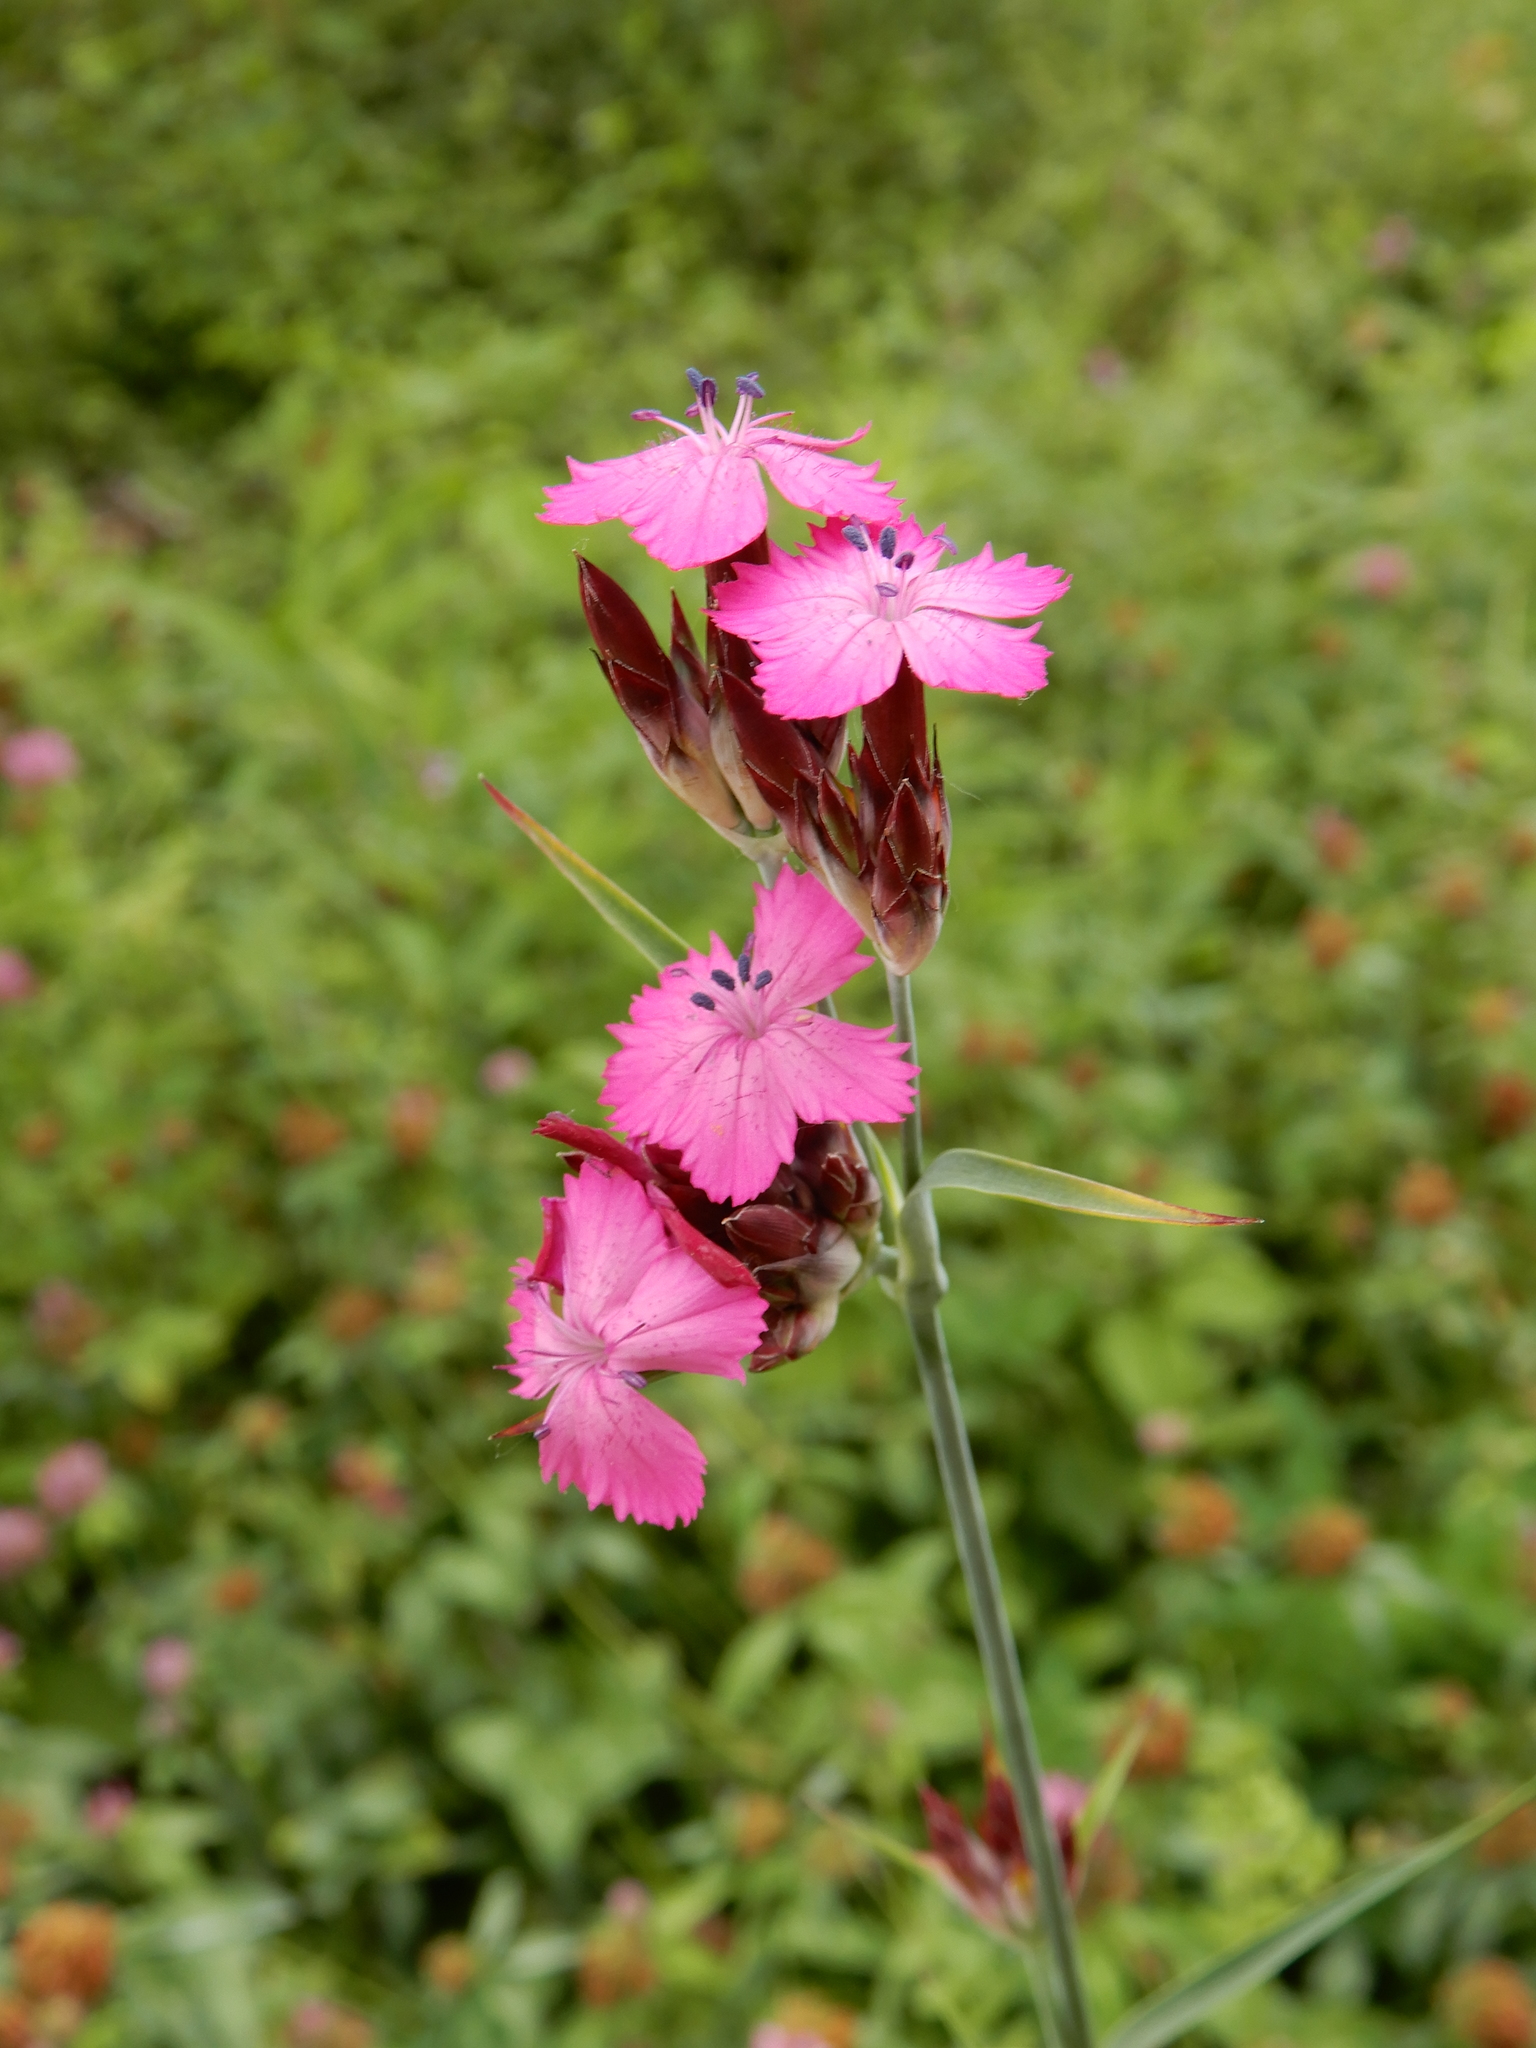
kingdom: Plantae
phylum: Tracheophyta
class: Magnoliopsida
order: Caryophyllales
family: Caryophyllaceae
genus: Dianthus
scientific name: Dianthus carthusianorum
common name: Carthusian pink
